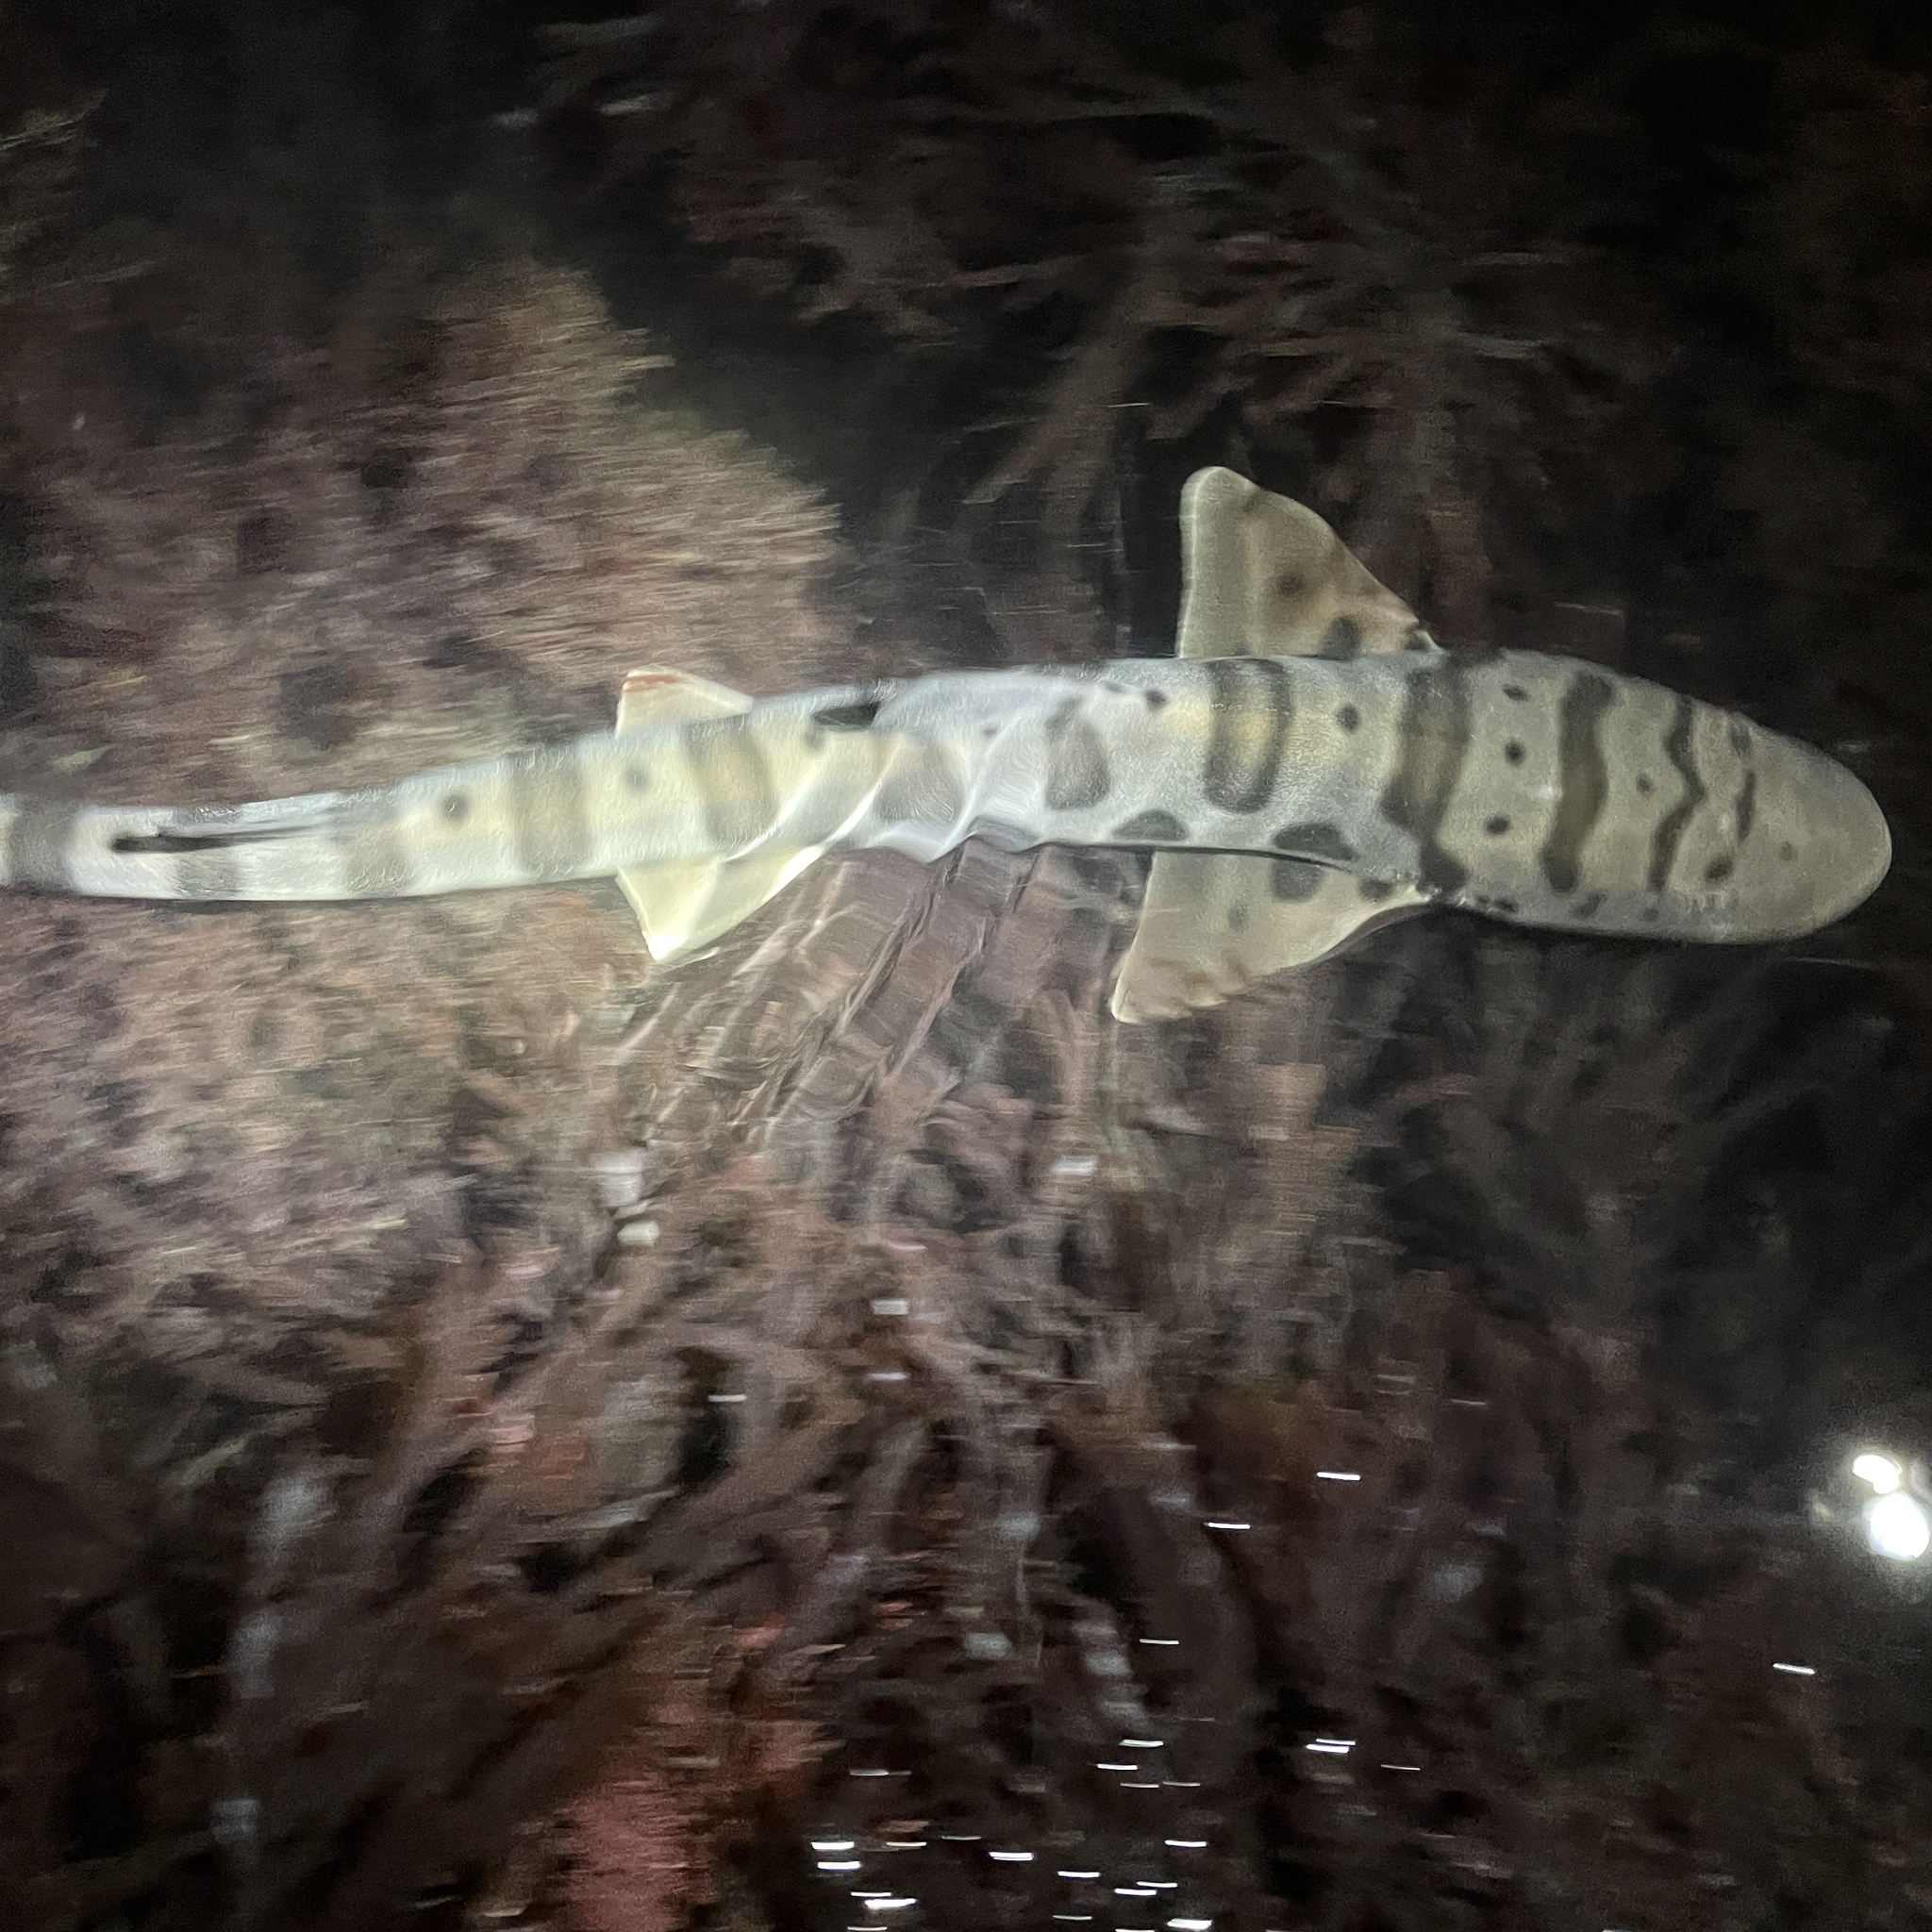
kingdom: Animalia
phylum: Chordata
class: Elasmobranchii
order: Carcharhiniformes
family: Triakidae
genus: Triakis
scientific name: Triakis semifasciata
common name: Leopard shark
